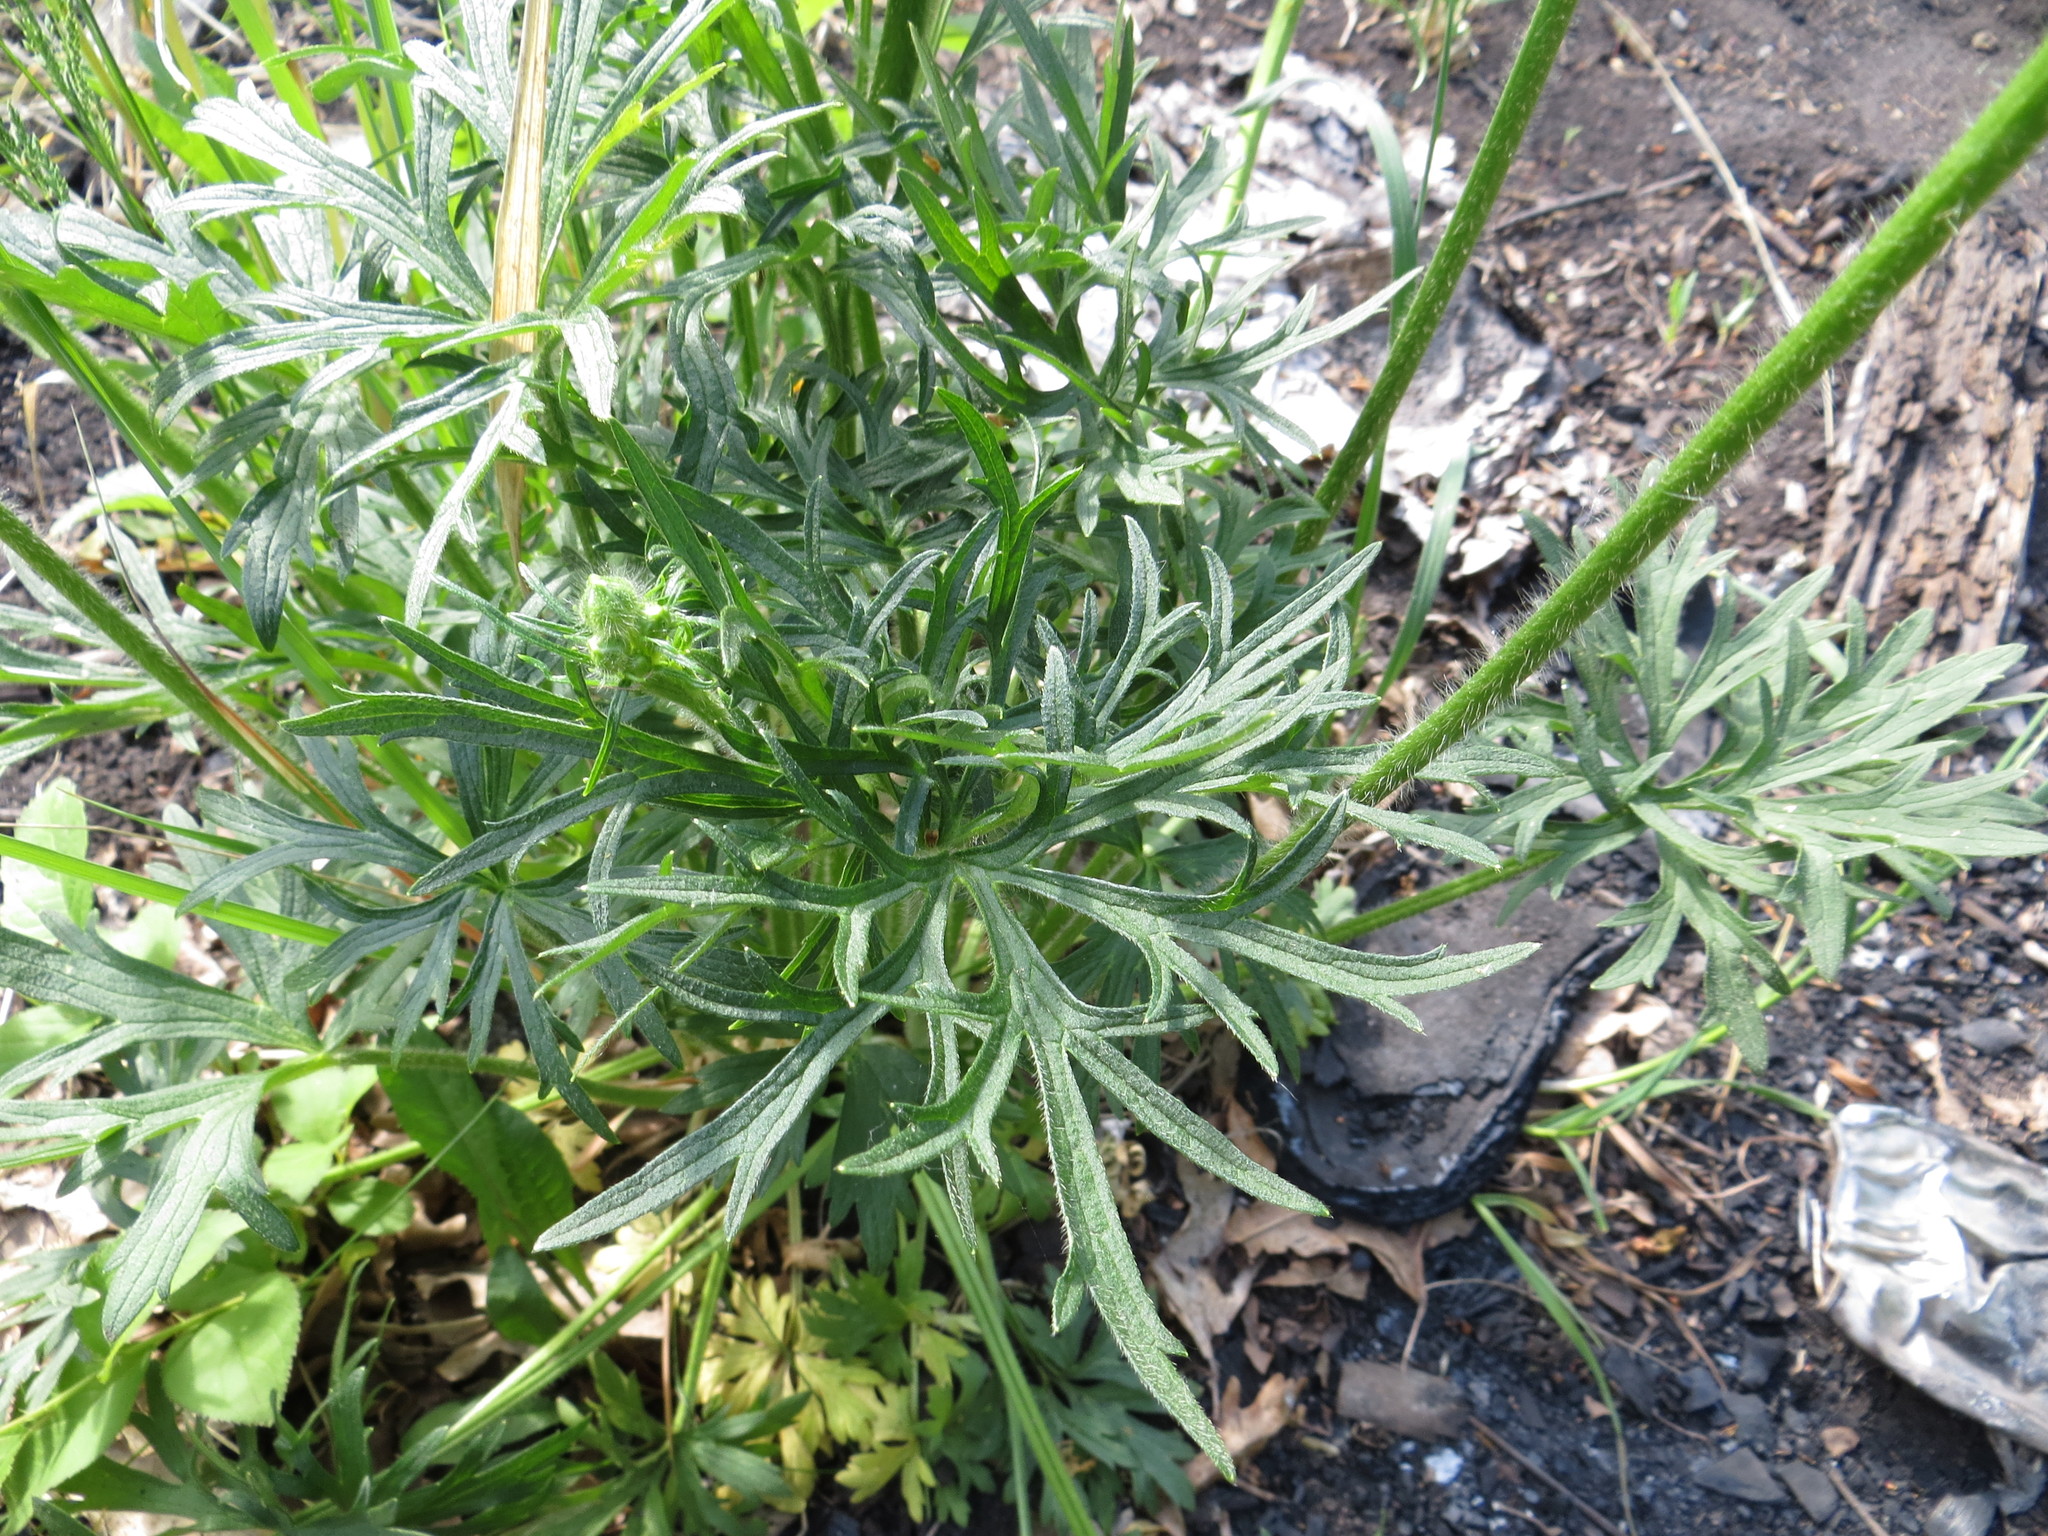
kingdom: Plantae
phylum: Tracheophyta
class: Magnoliopsida
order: Ranunculales
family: Ranunculaceae
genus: Ranunculus
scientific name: Ranunculus polyanthemos
